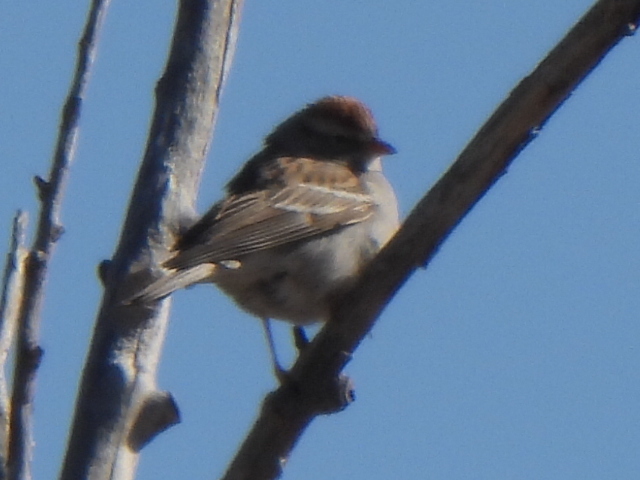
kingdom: Animalia
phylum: Chordata
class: Aves
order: Passeriformes
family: Passerellidae
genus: Spizella
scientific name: Spizella passerina
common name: Chipping sparrow
